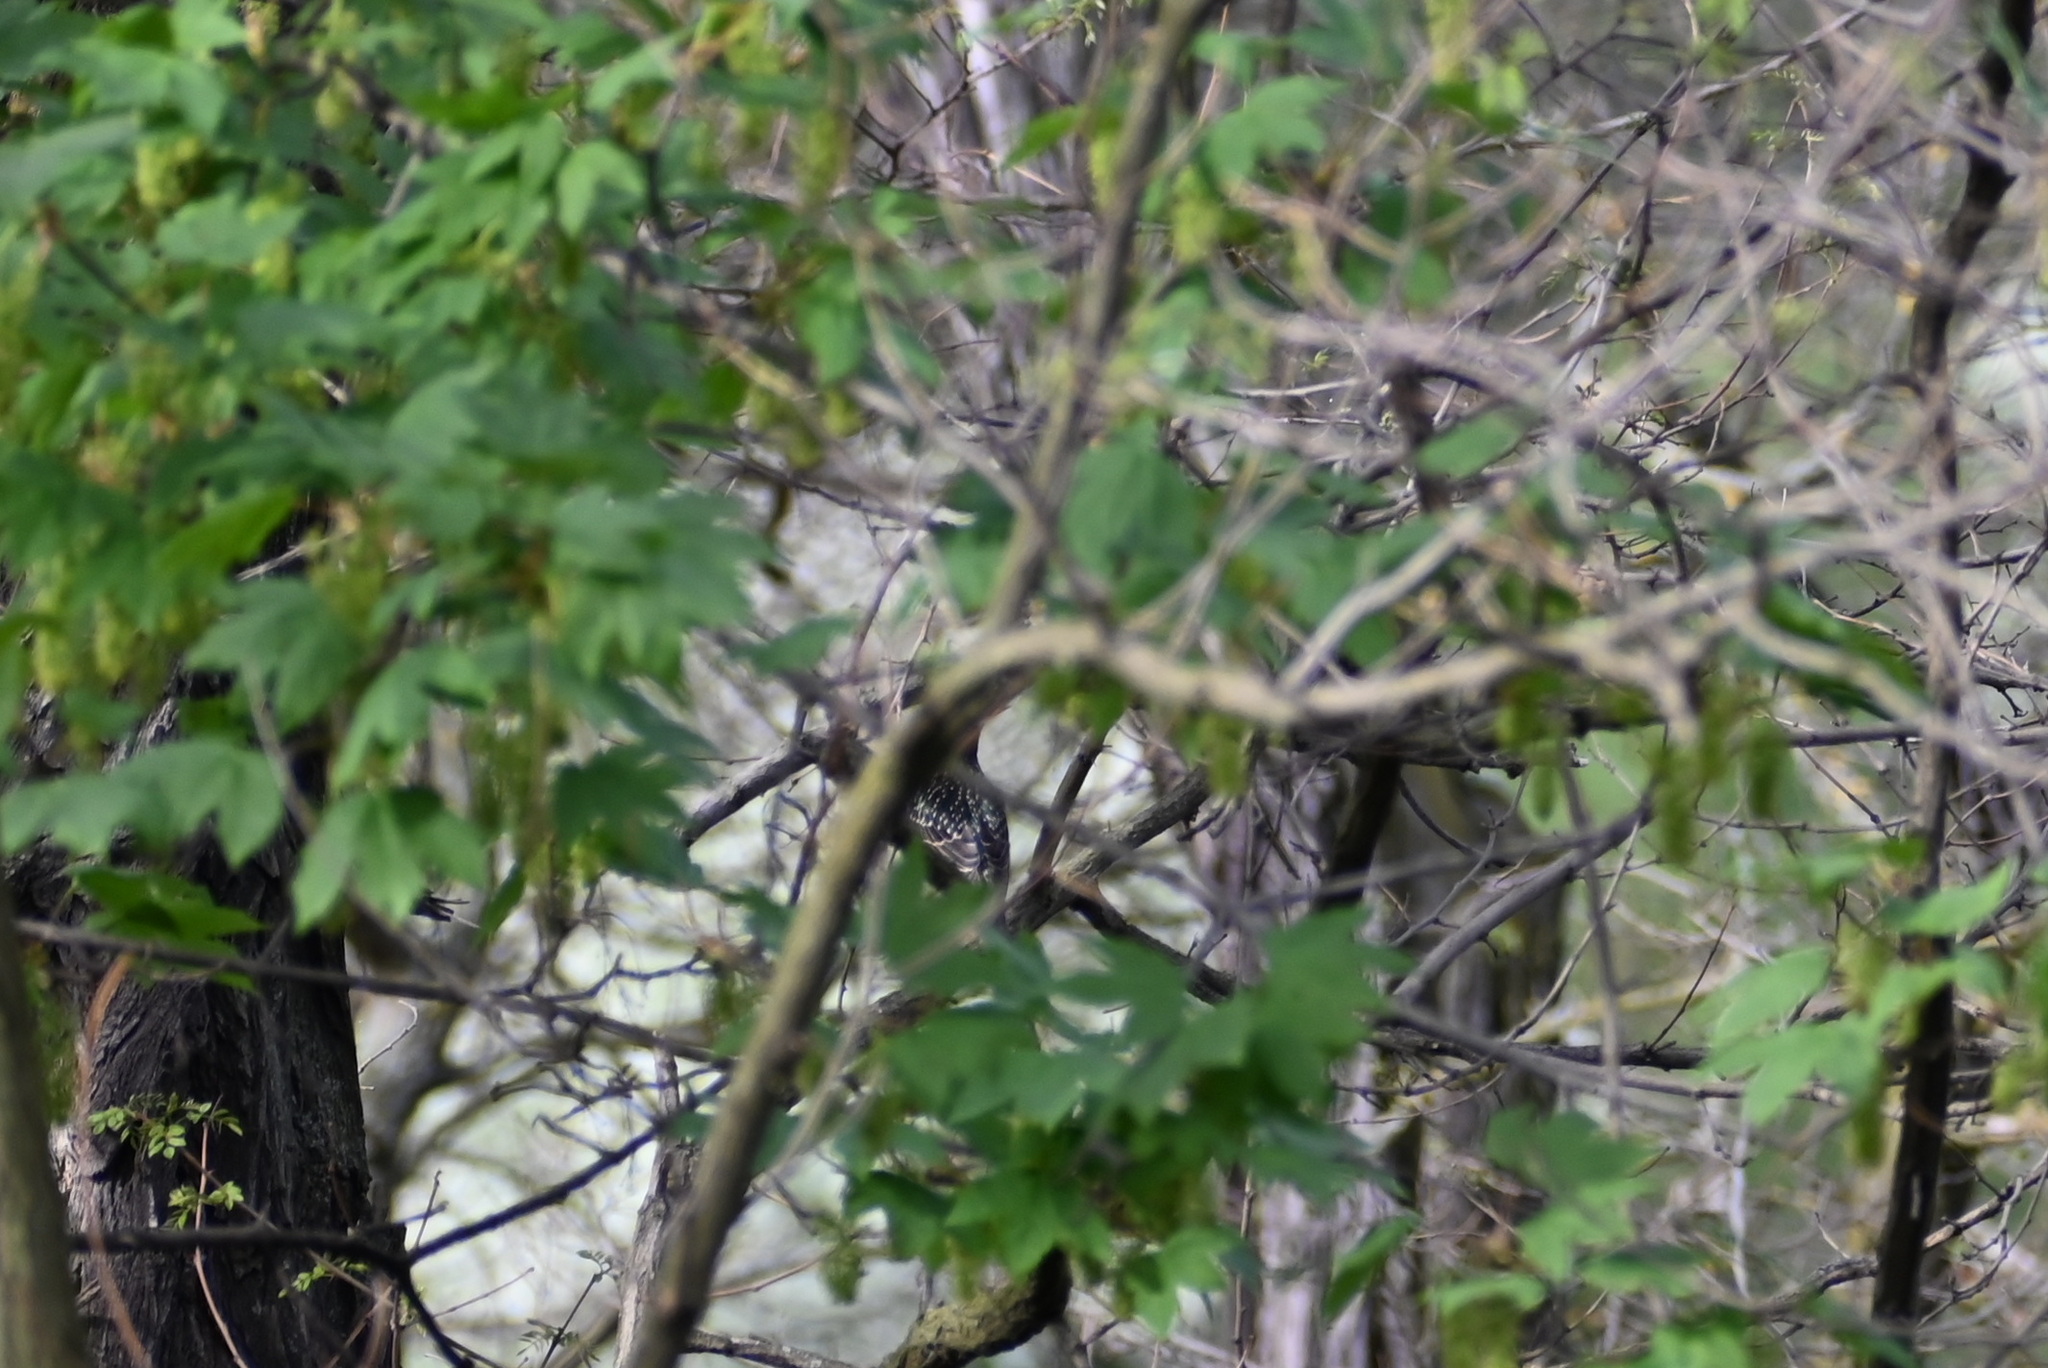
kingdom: Animalia
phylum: Chordata
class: Aves
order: Passeriformes
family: Sturnidae
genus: Sturnus
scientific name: Sturnus vulgaris
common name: Common starling
